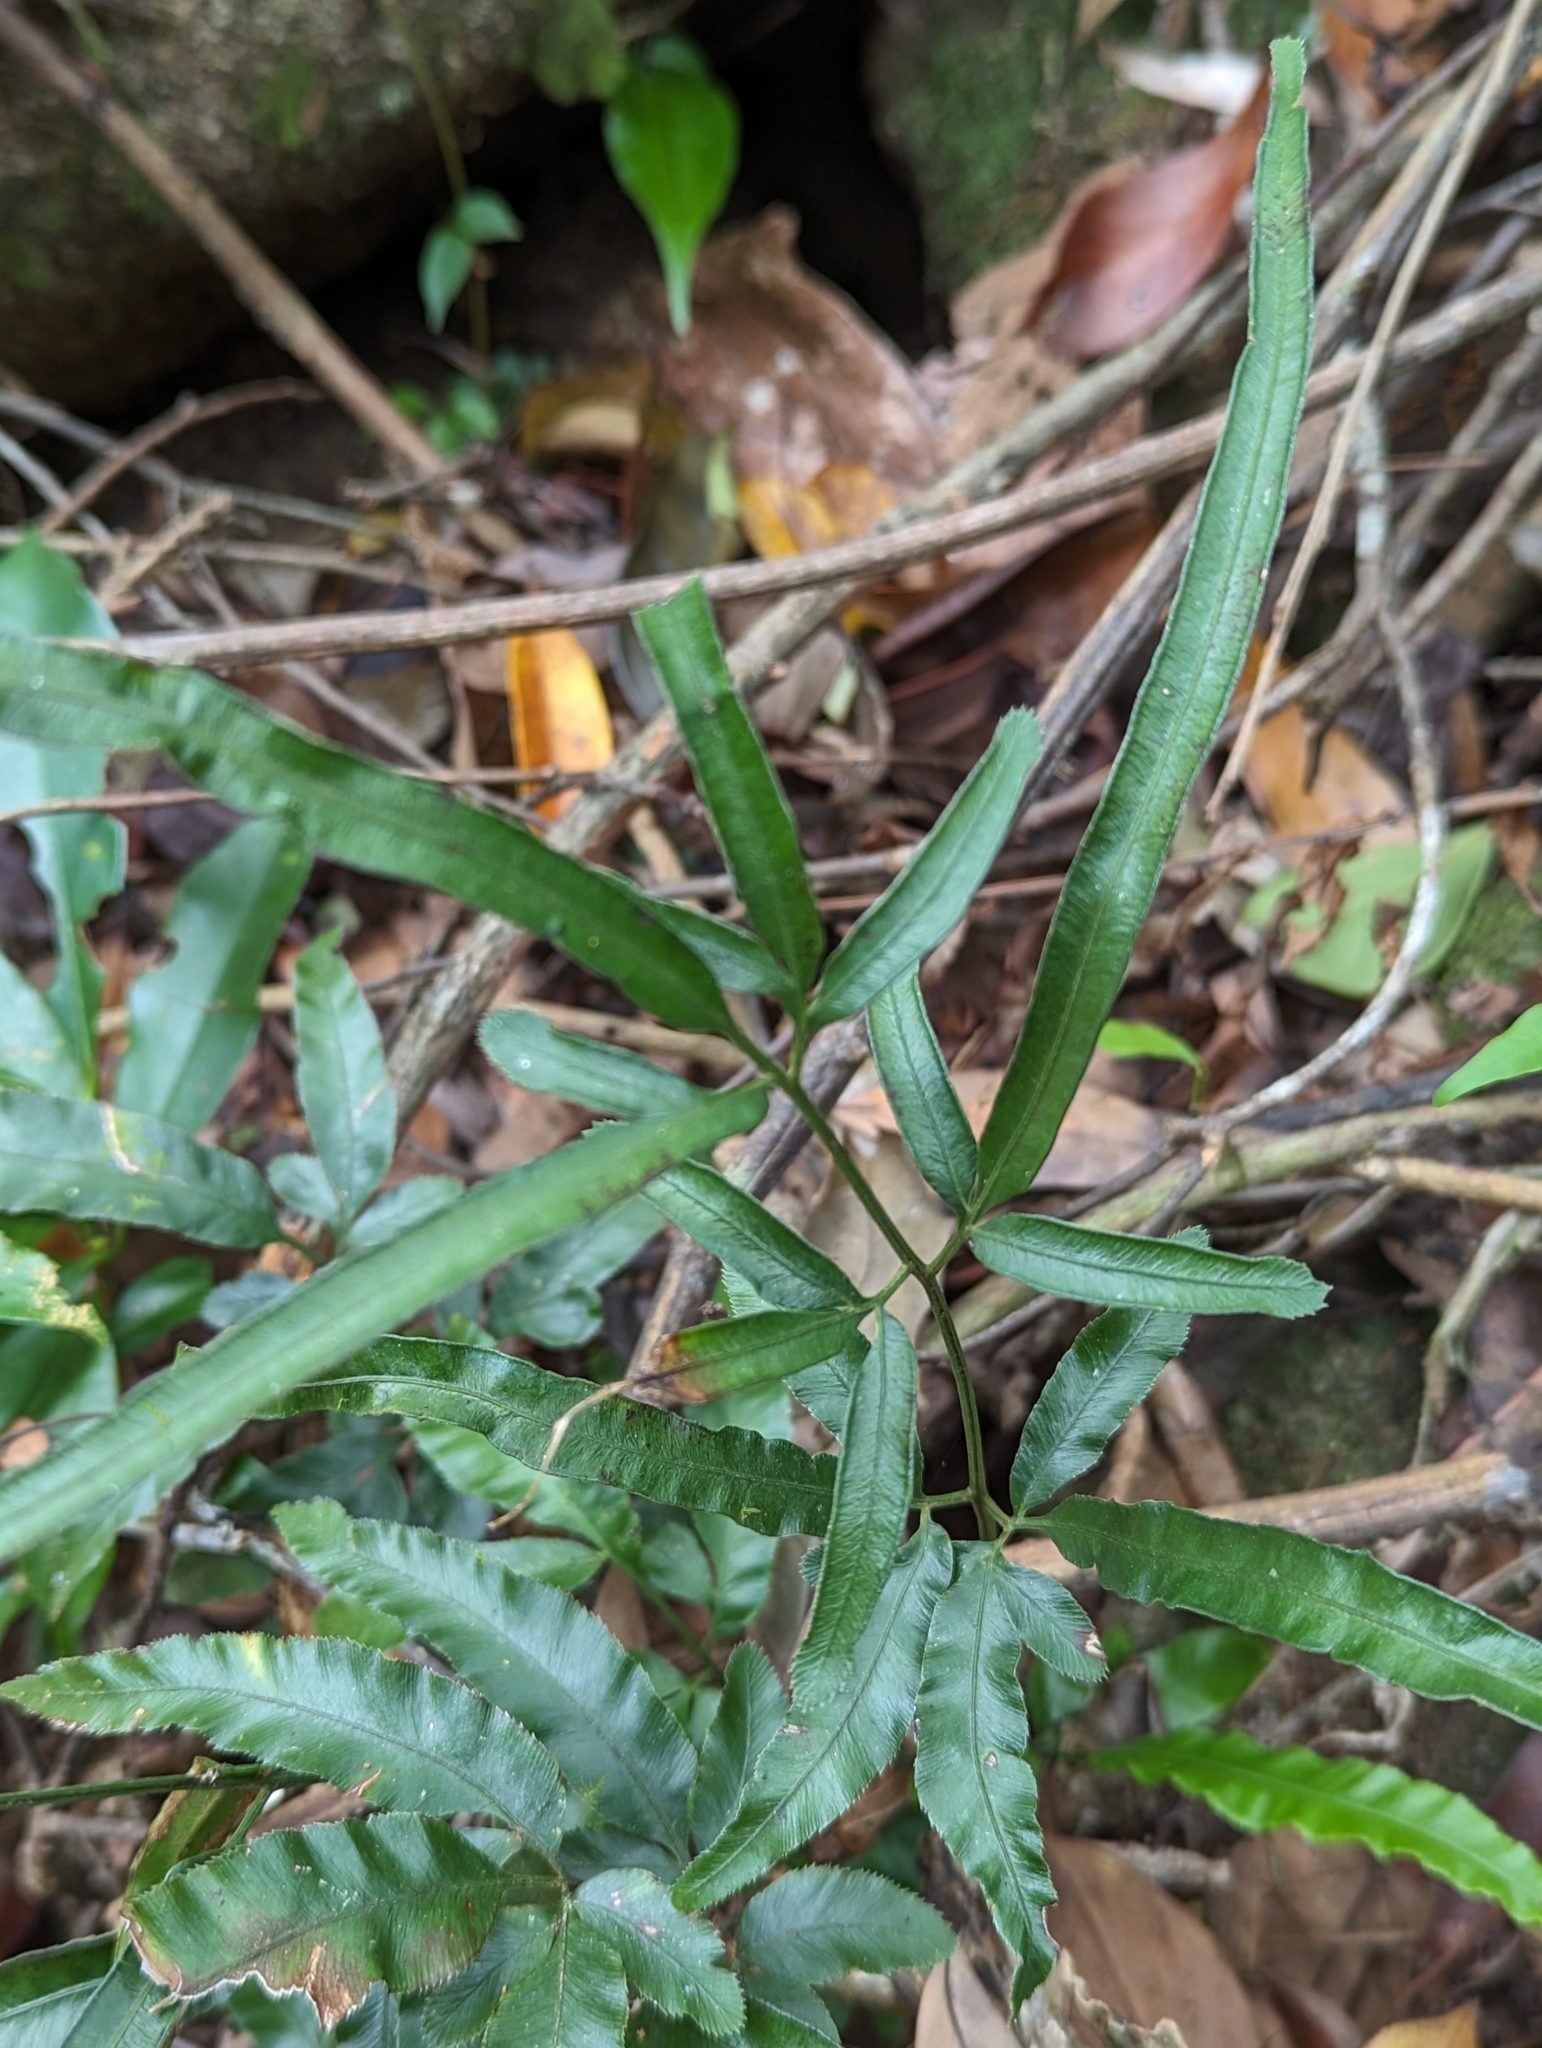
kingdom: Plantae
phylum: Tracheophyta
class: Polypodiopsida
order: Polypodiales
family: Pteridaceae
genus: Pteris
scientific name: Pteris ensiformis
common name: Sword brake
